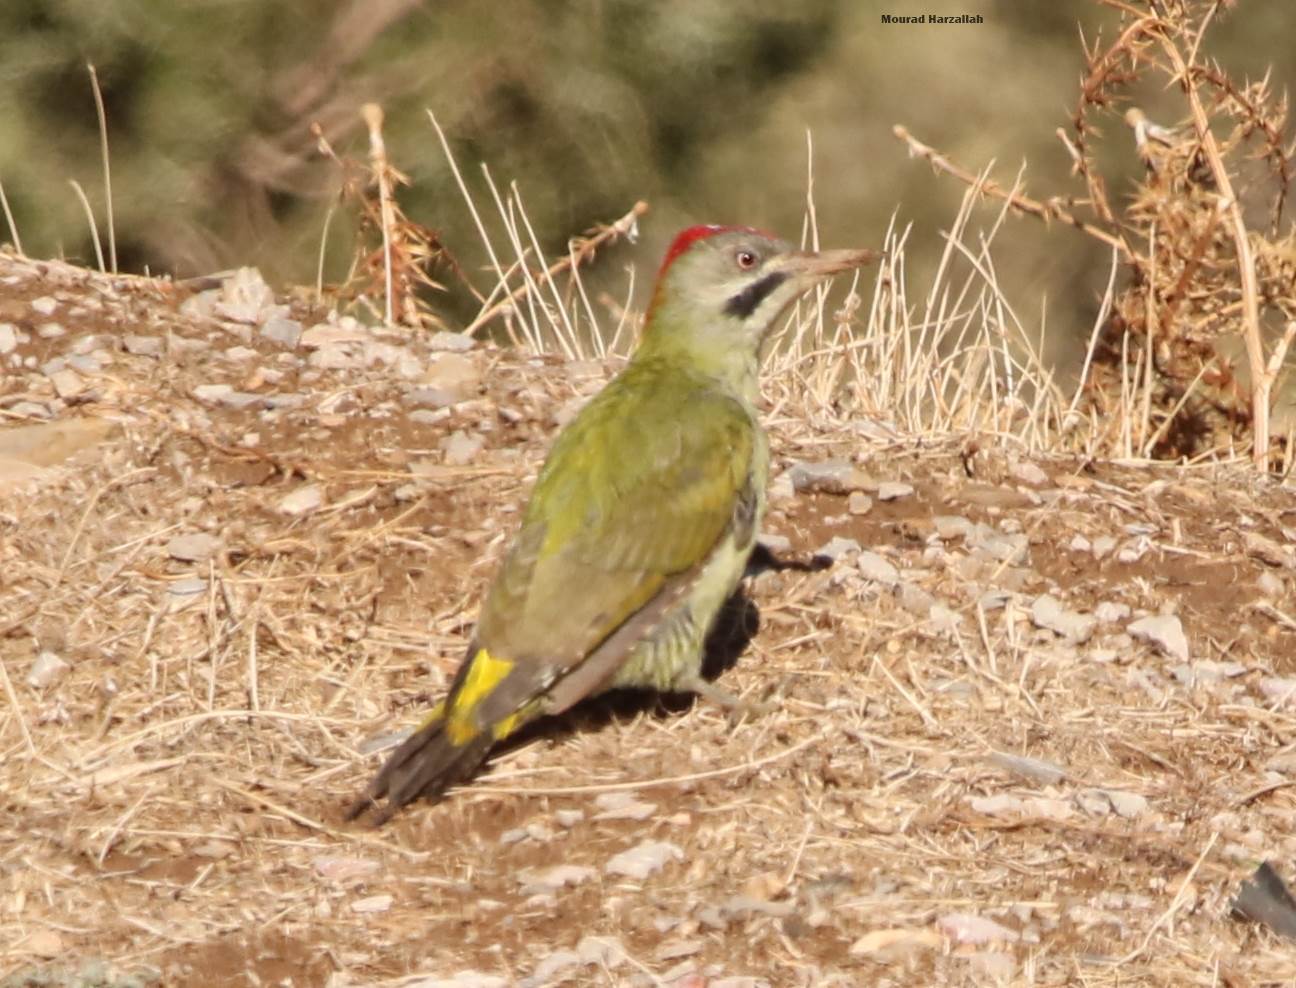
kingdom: Animalia
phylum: Chordata
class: Aves
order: Piciformes
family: Picidae
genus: Picus
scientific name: Picus vaillantii
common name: Levaillant's woodpecker
